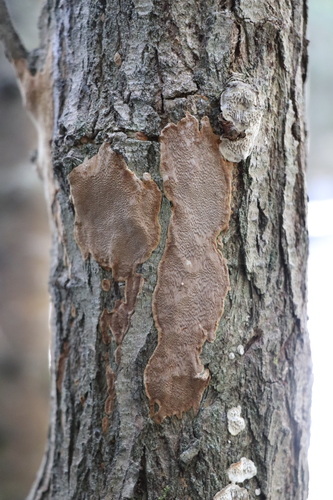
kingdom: Fungi
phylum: Basidiomycota
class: Agaricomycetes
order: Hymenochaetales
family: Hymenochaetaceae
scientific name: Hymenochaetaceae
